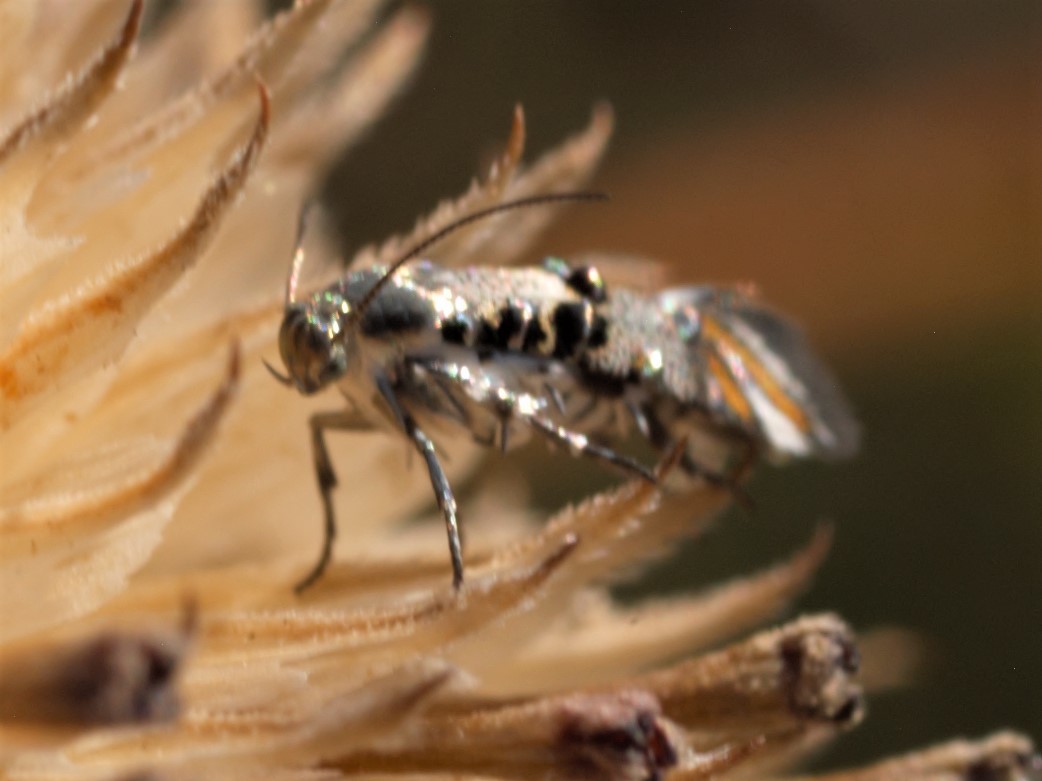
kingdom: Animalia
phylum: Arthropoda
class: Insecta
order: Lepidoptera
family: Heliodinidae
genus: Lithariapteryx
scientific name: Lithariapteryx abroniaeella
